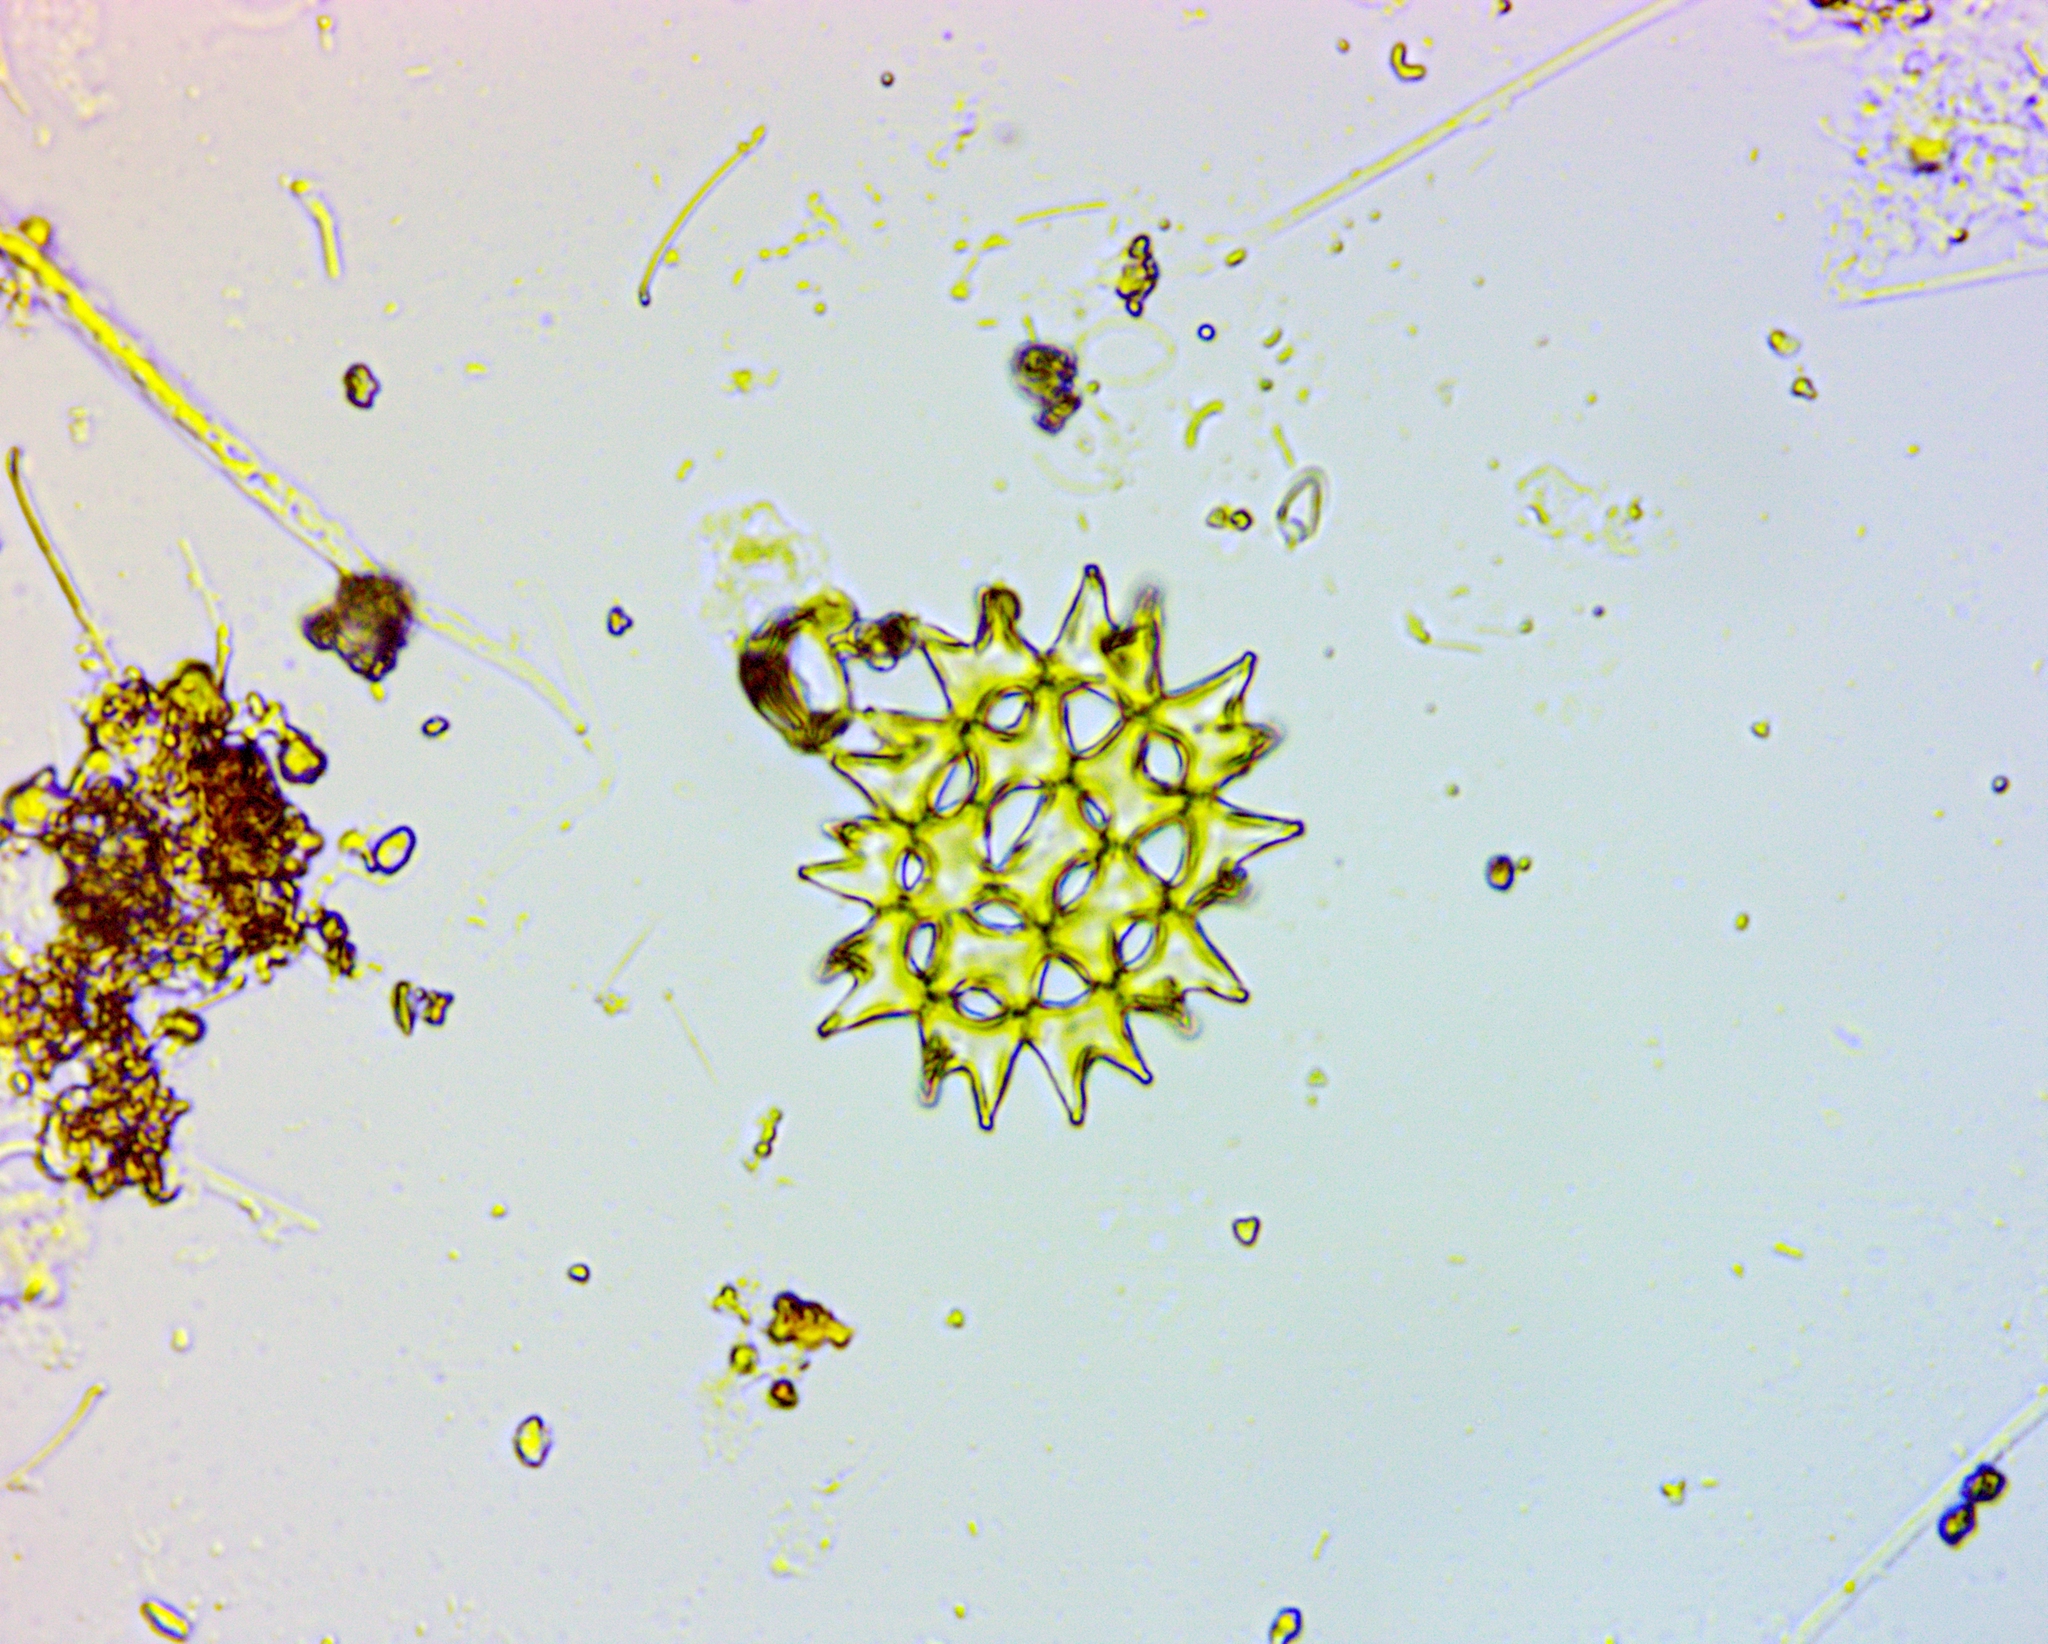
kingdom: Plantae
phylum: Chlorophyta
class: Chlorophyceae
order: Sphaeropleales
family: Hydrodictyaceae
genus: Pediastrum
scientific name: Pediastrum duplex
